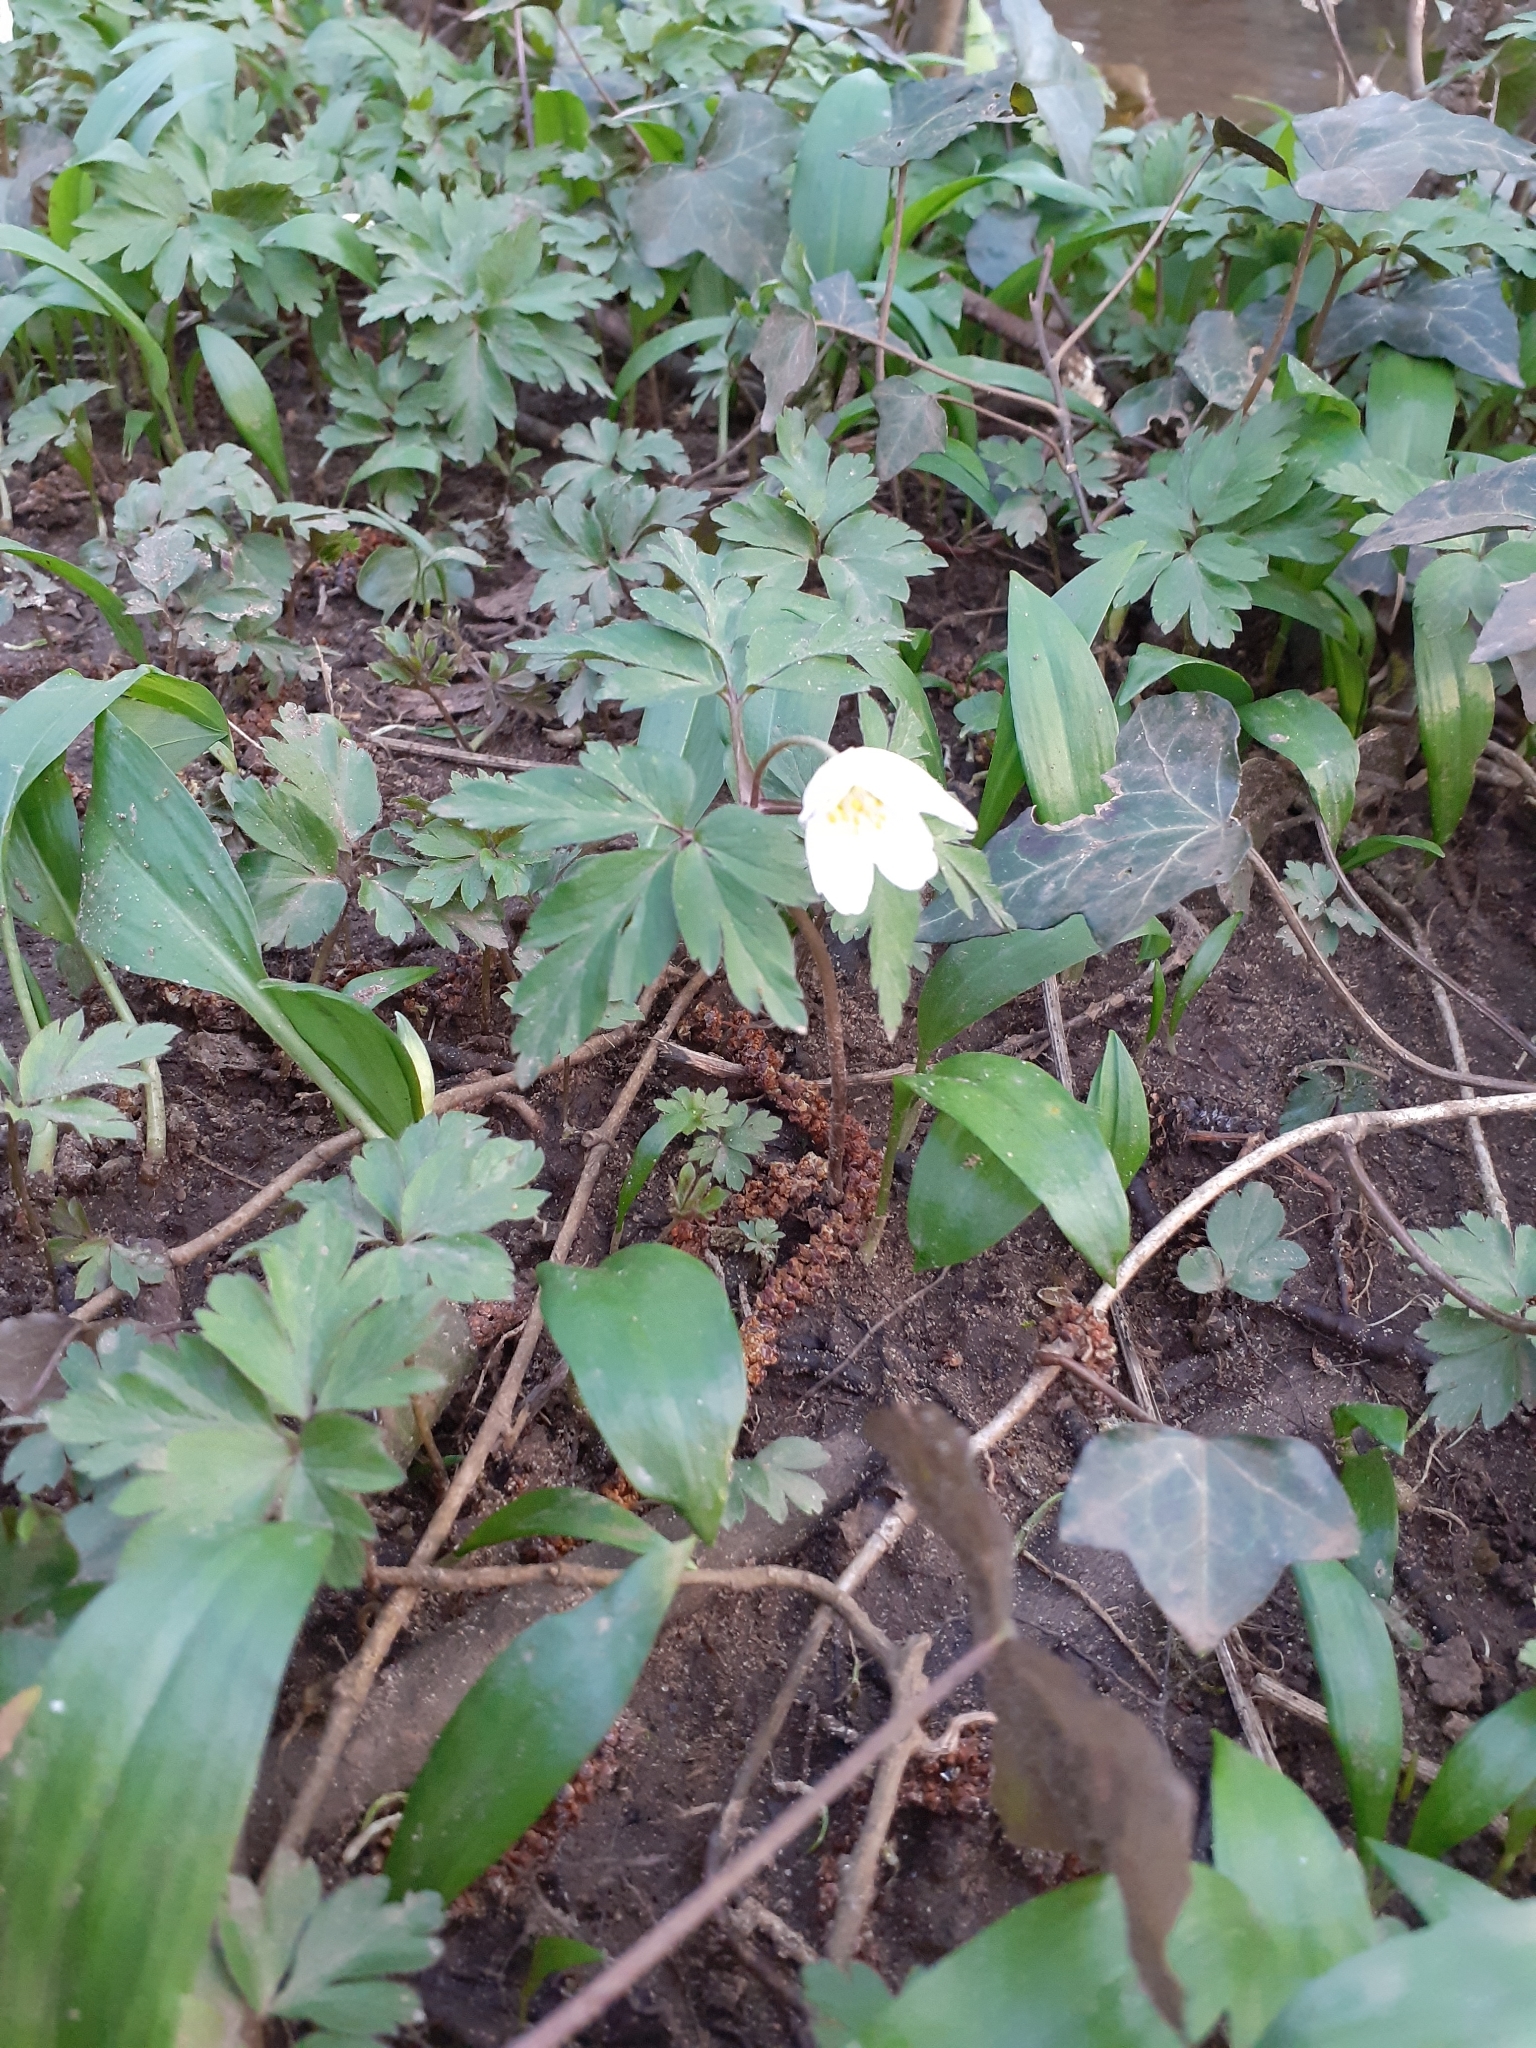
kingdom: Plantae
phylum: Tracheophyta
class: Magnoliopsida
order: Ranunculales
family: Ranunculaceae
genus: Anemone
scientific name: Anemone nemorosa
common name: Wood anemone
